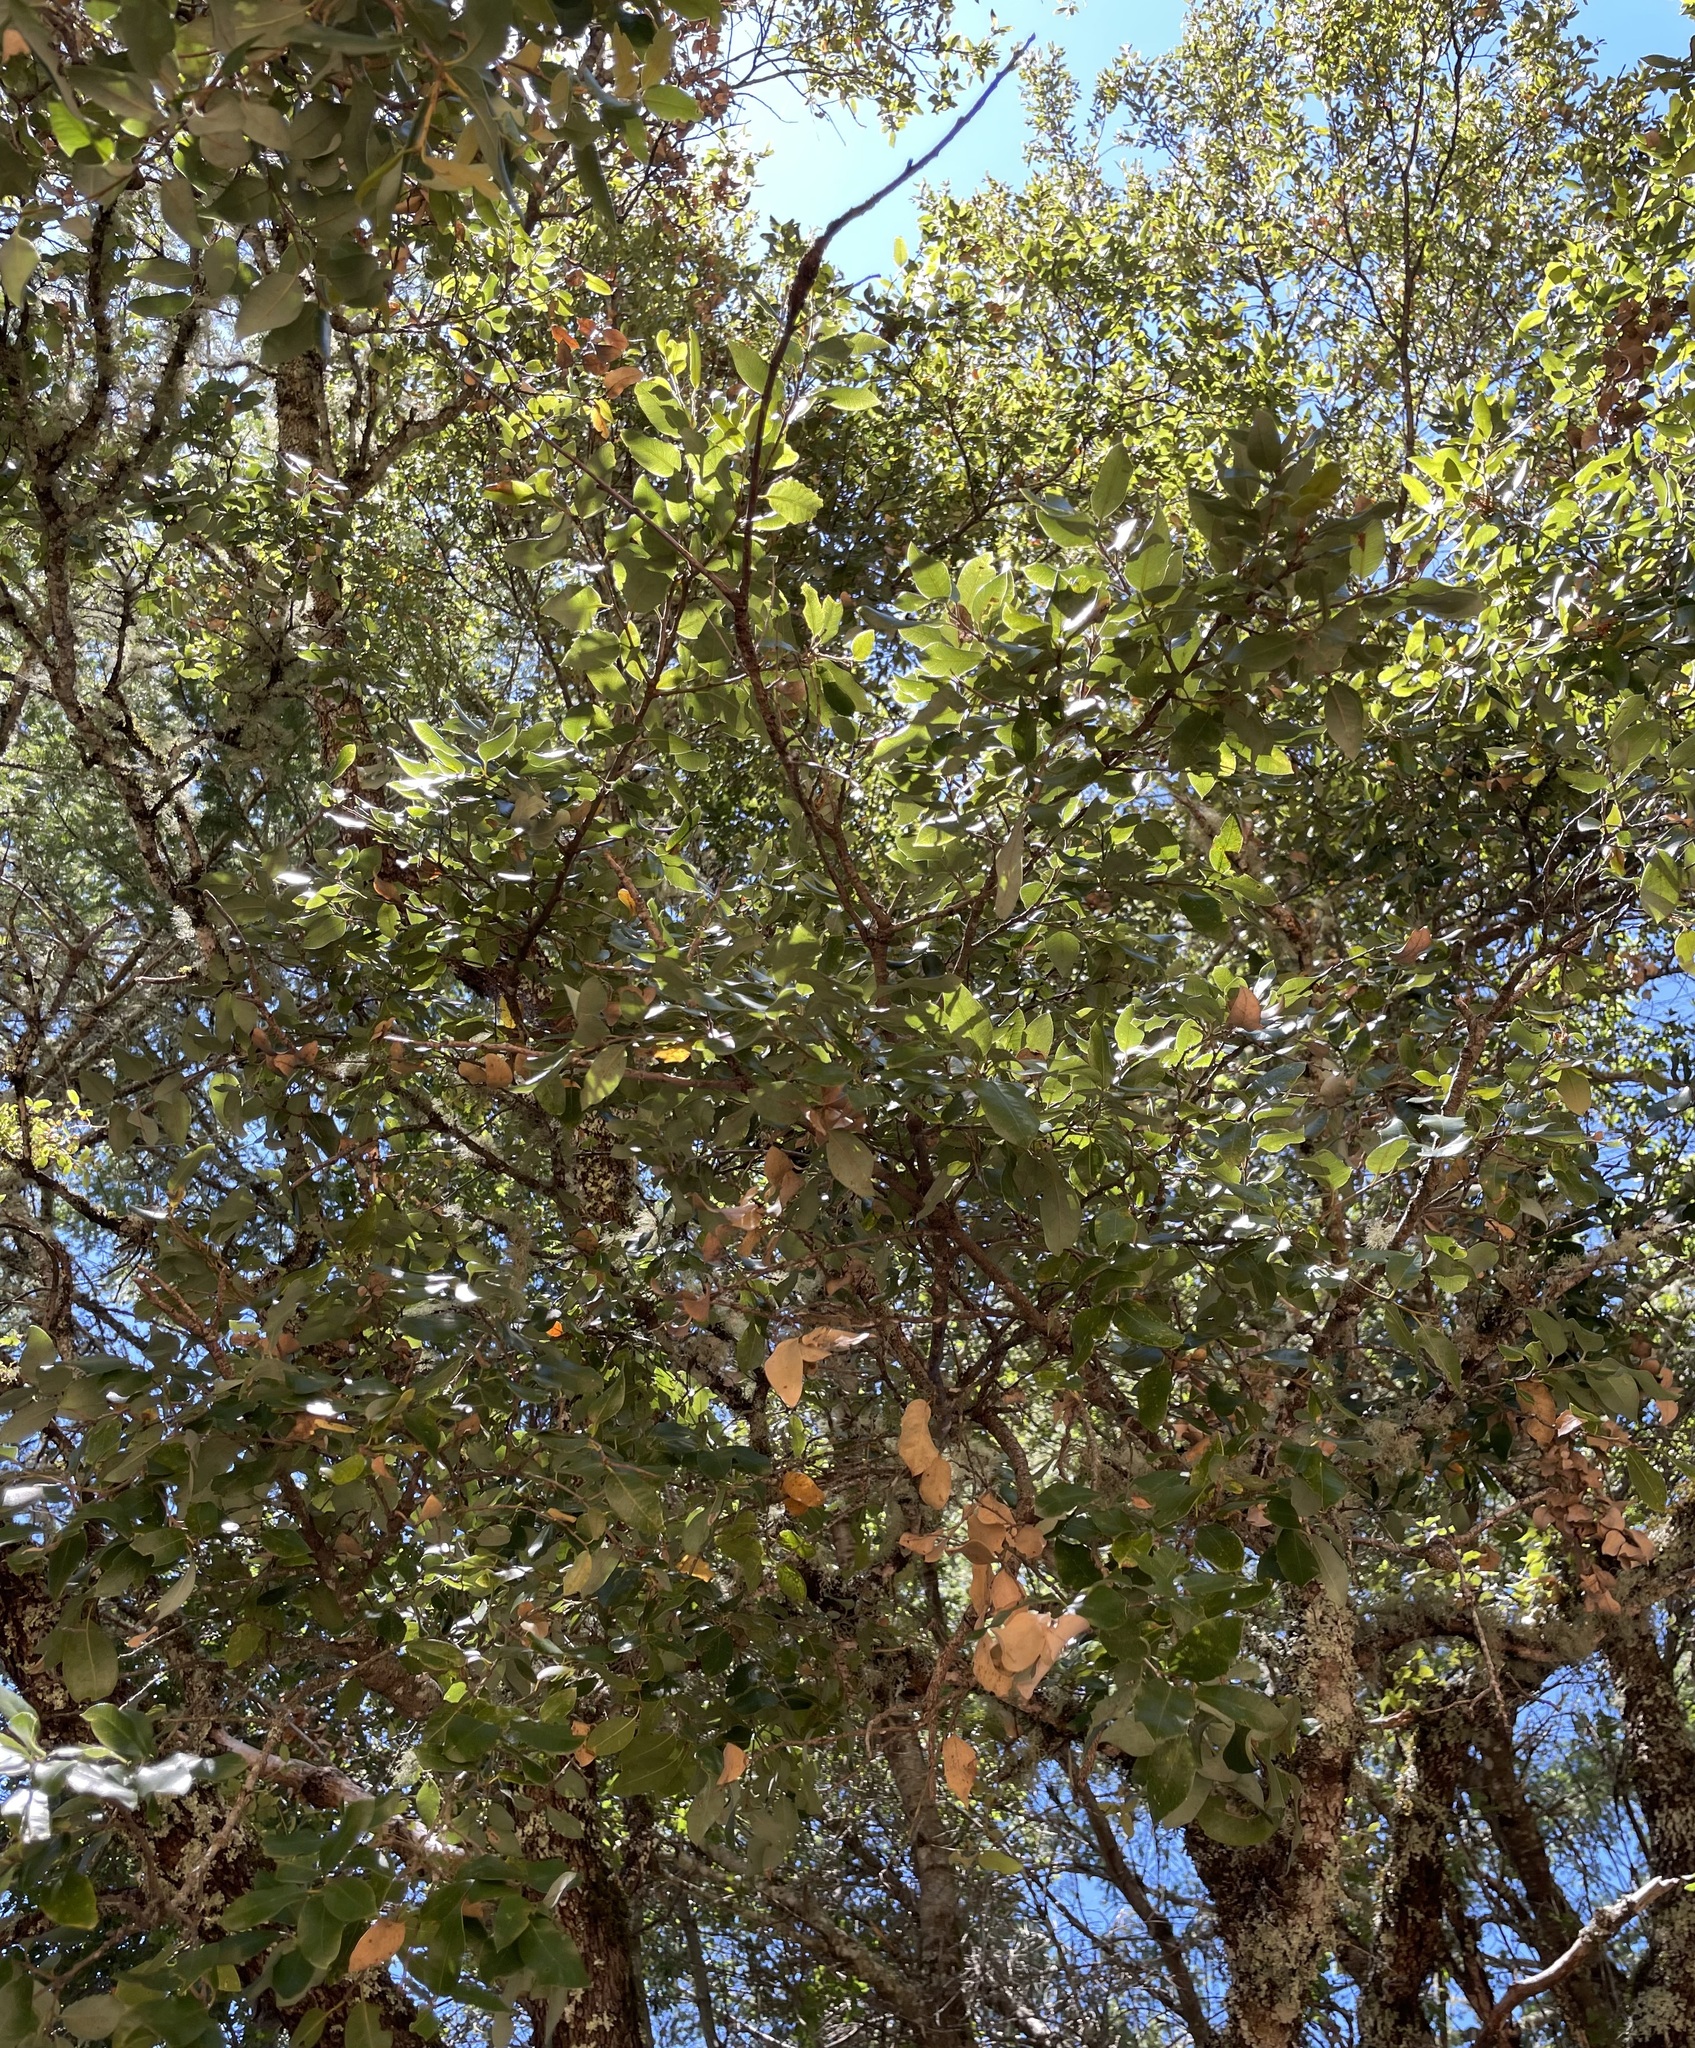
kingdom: Plantae
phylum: Tracheophyta
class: Magnoliopsida
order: Fagales
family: Fagaceae
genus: Quercus
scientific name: Quercus chrysolepis
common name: Canyon live oak
